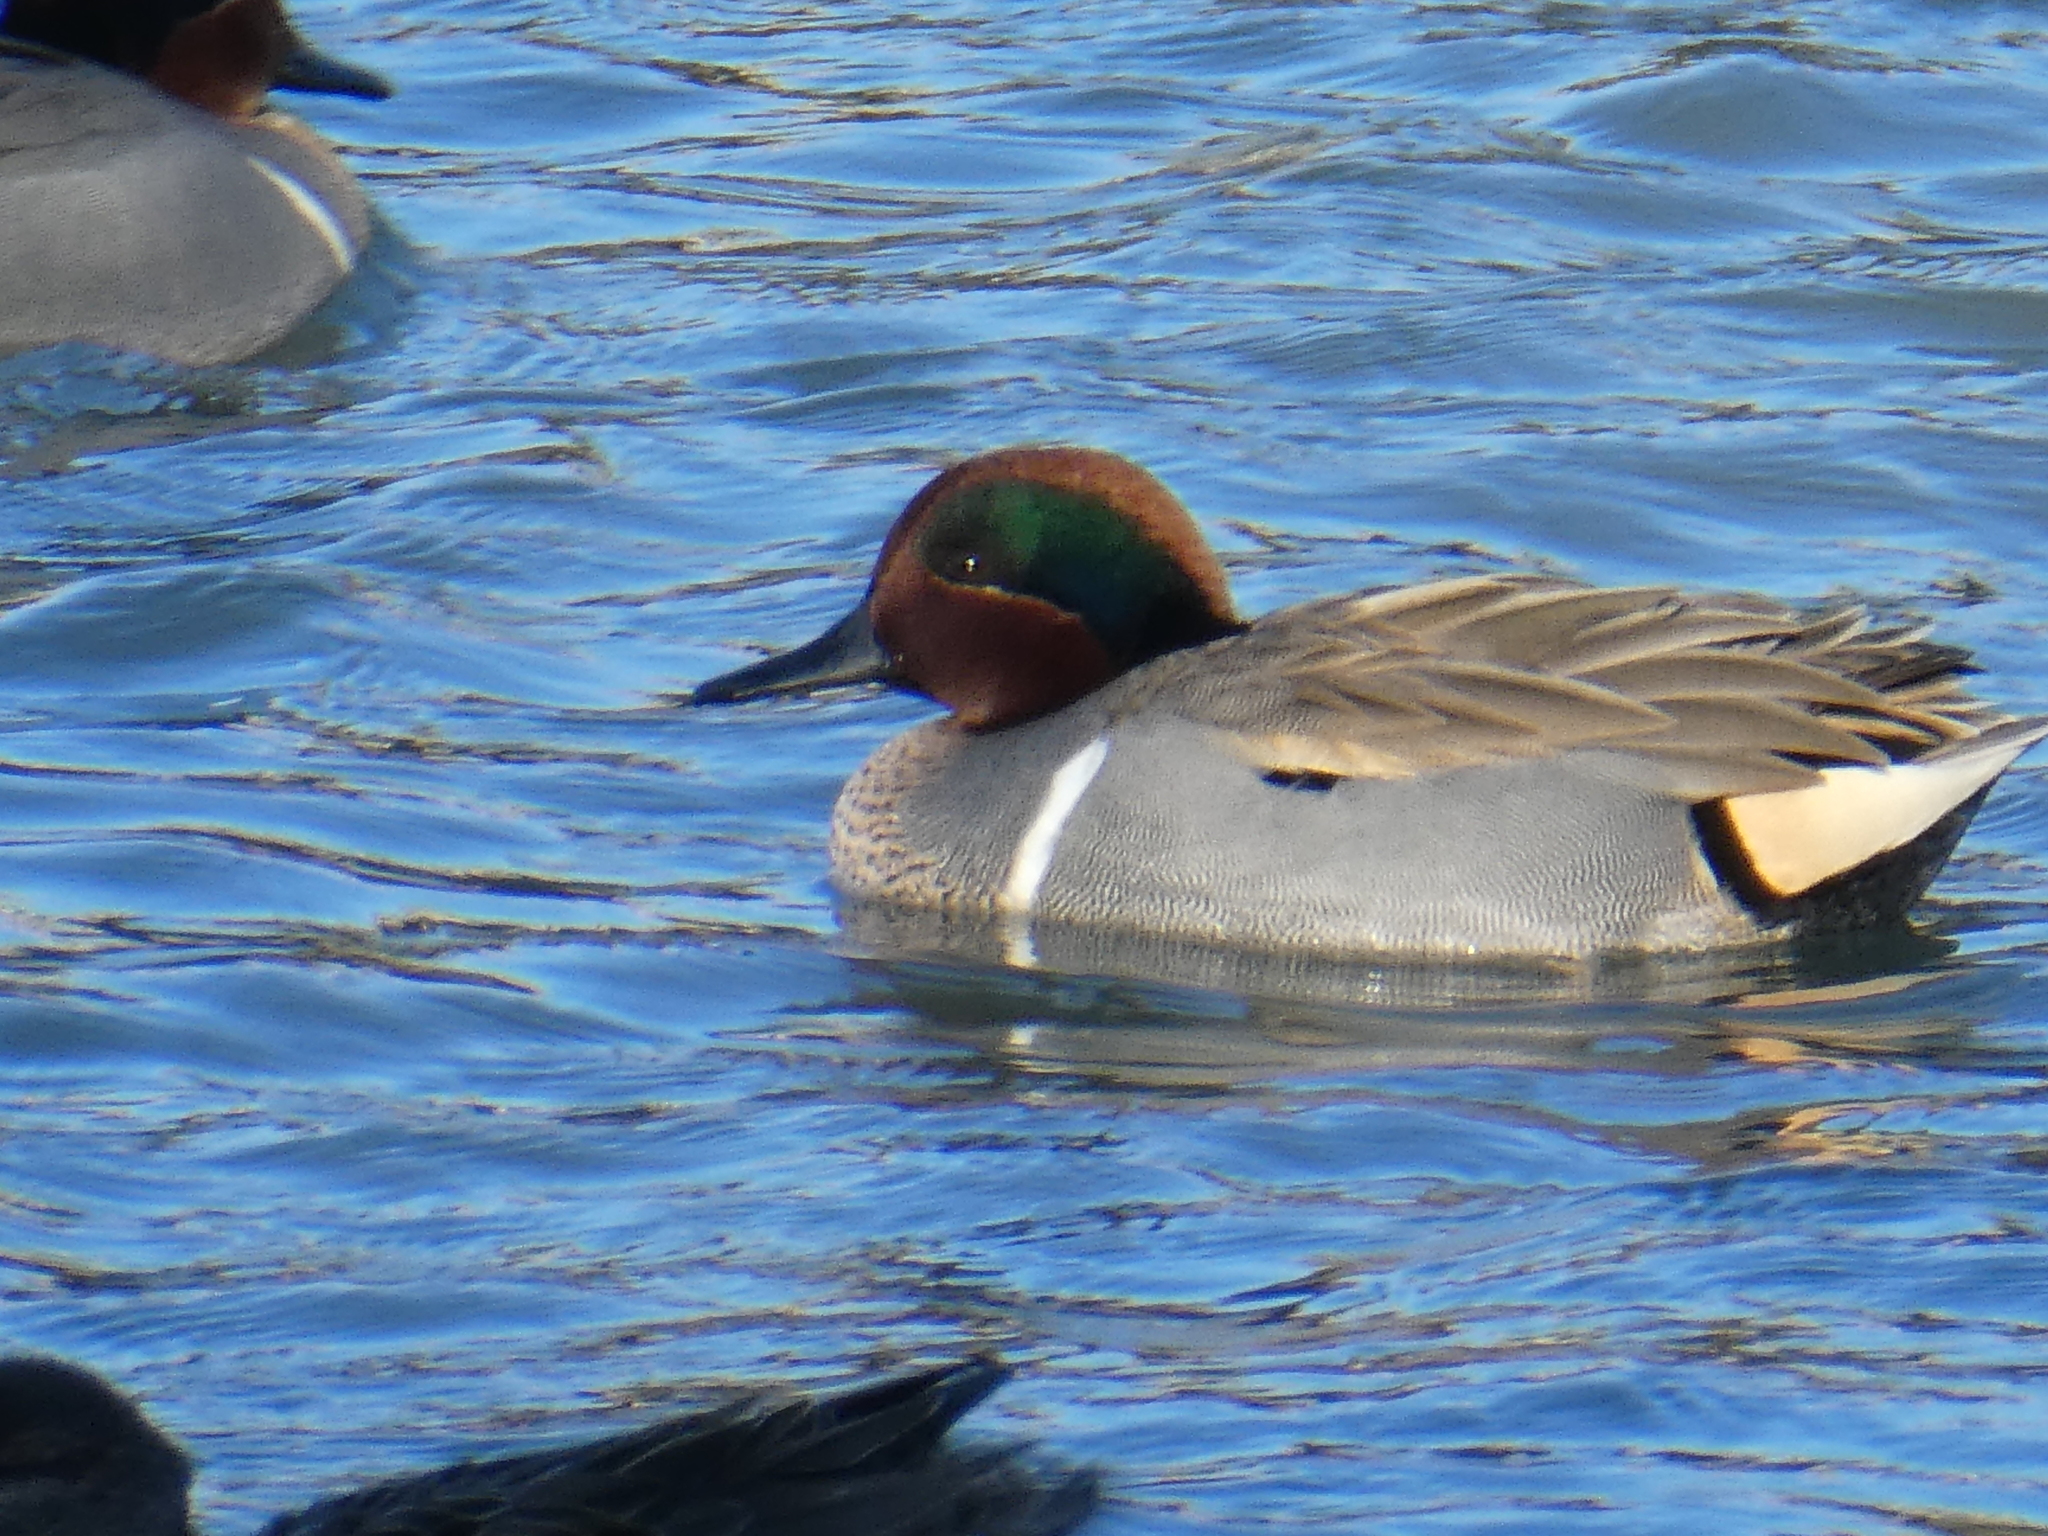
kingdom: Animalia
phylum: Chordata
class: Aves
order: Anseriformes
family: Anatidae
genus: Anas
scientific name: Anas crecca
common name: Eurasian teal
